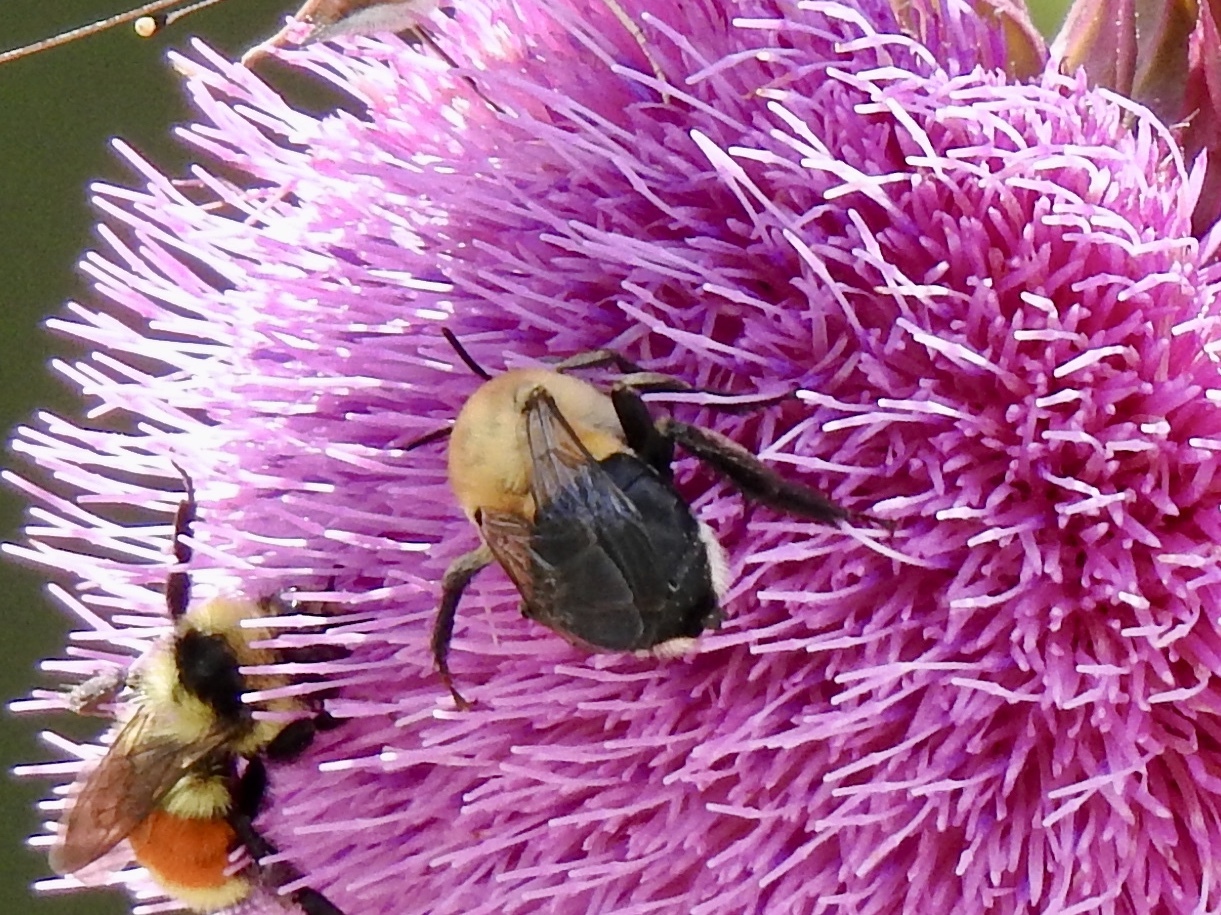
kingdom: Animalia
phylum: Arthropoda
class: Insecta
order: Hymenoptera
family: Apidae
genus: Anthophora
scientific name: Anthophora montana
